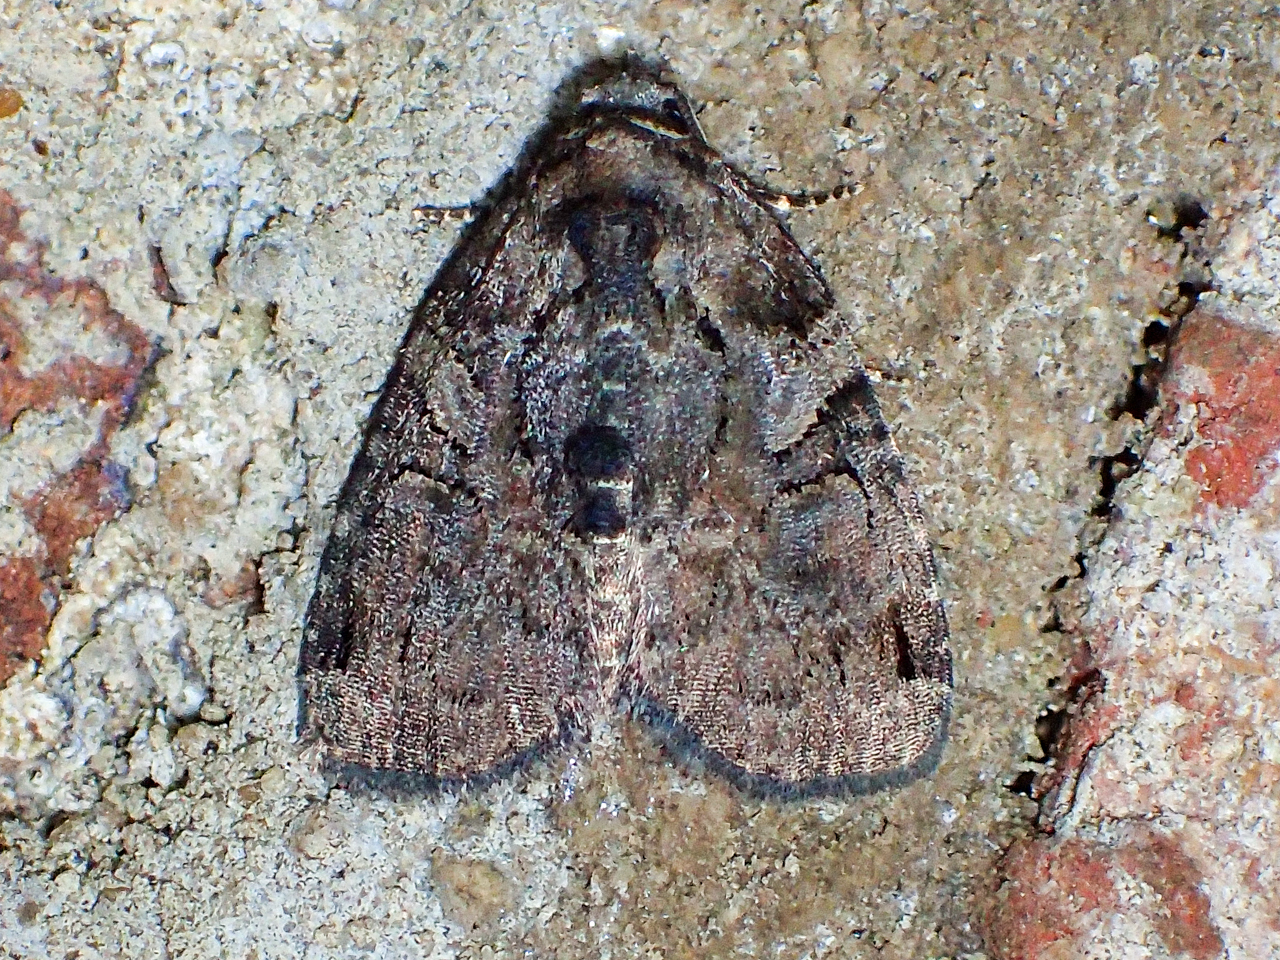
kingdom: Animalia
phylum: Arthropoda
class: Insecta
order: Lepidoptera
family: Noctuidae
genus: Pseudeustrotia
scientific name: Pseudeustrotia indeterminata
